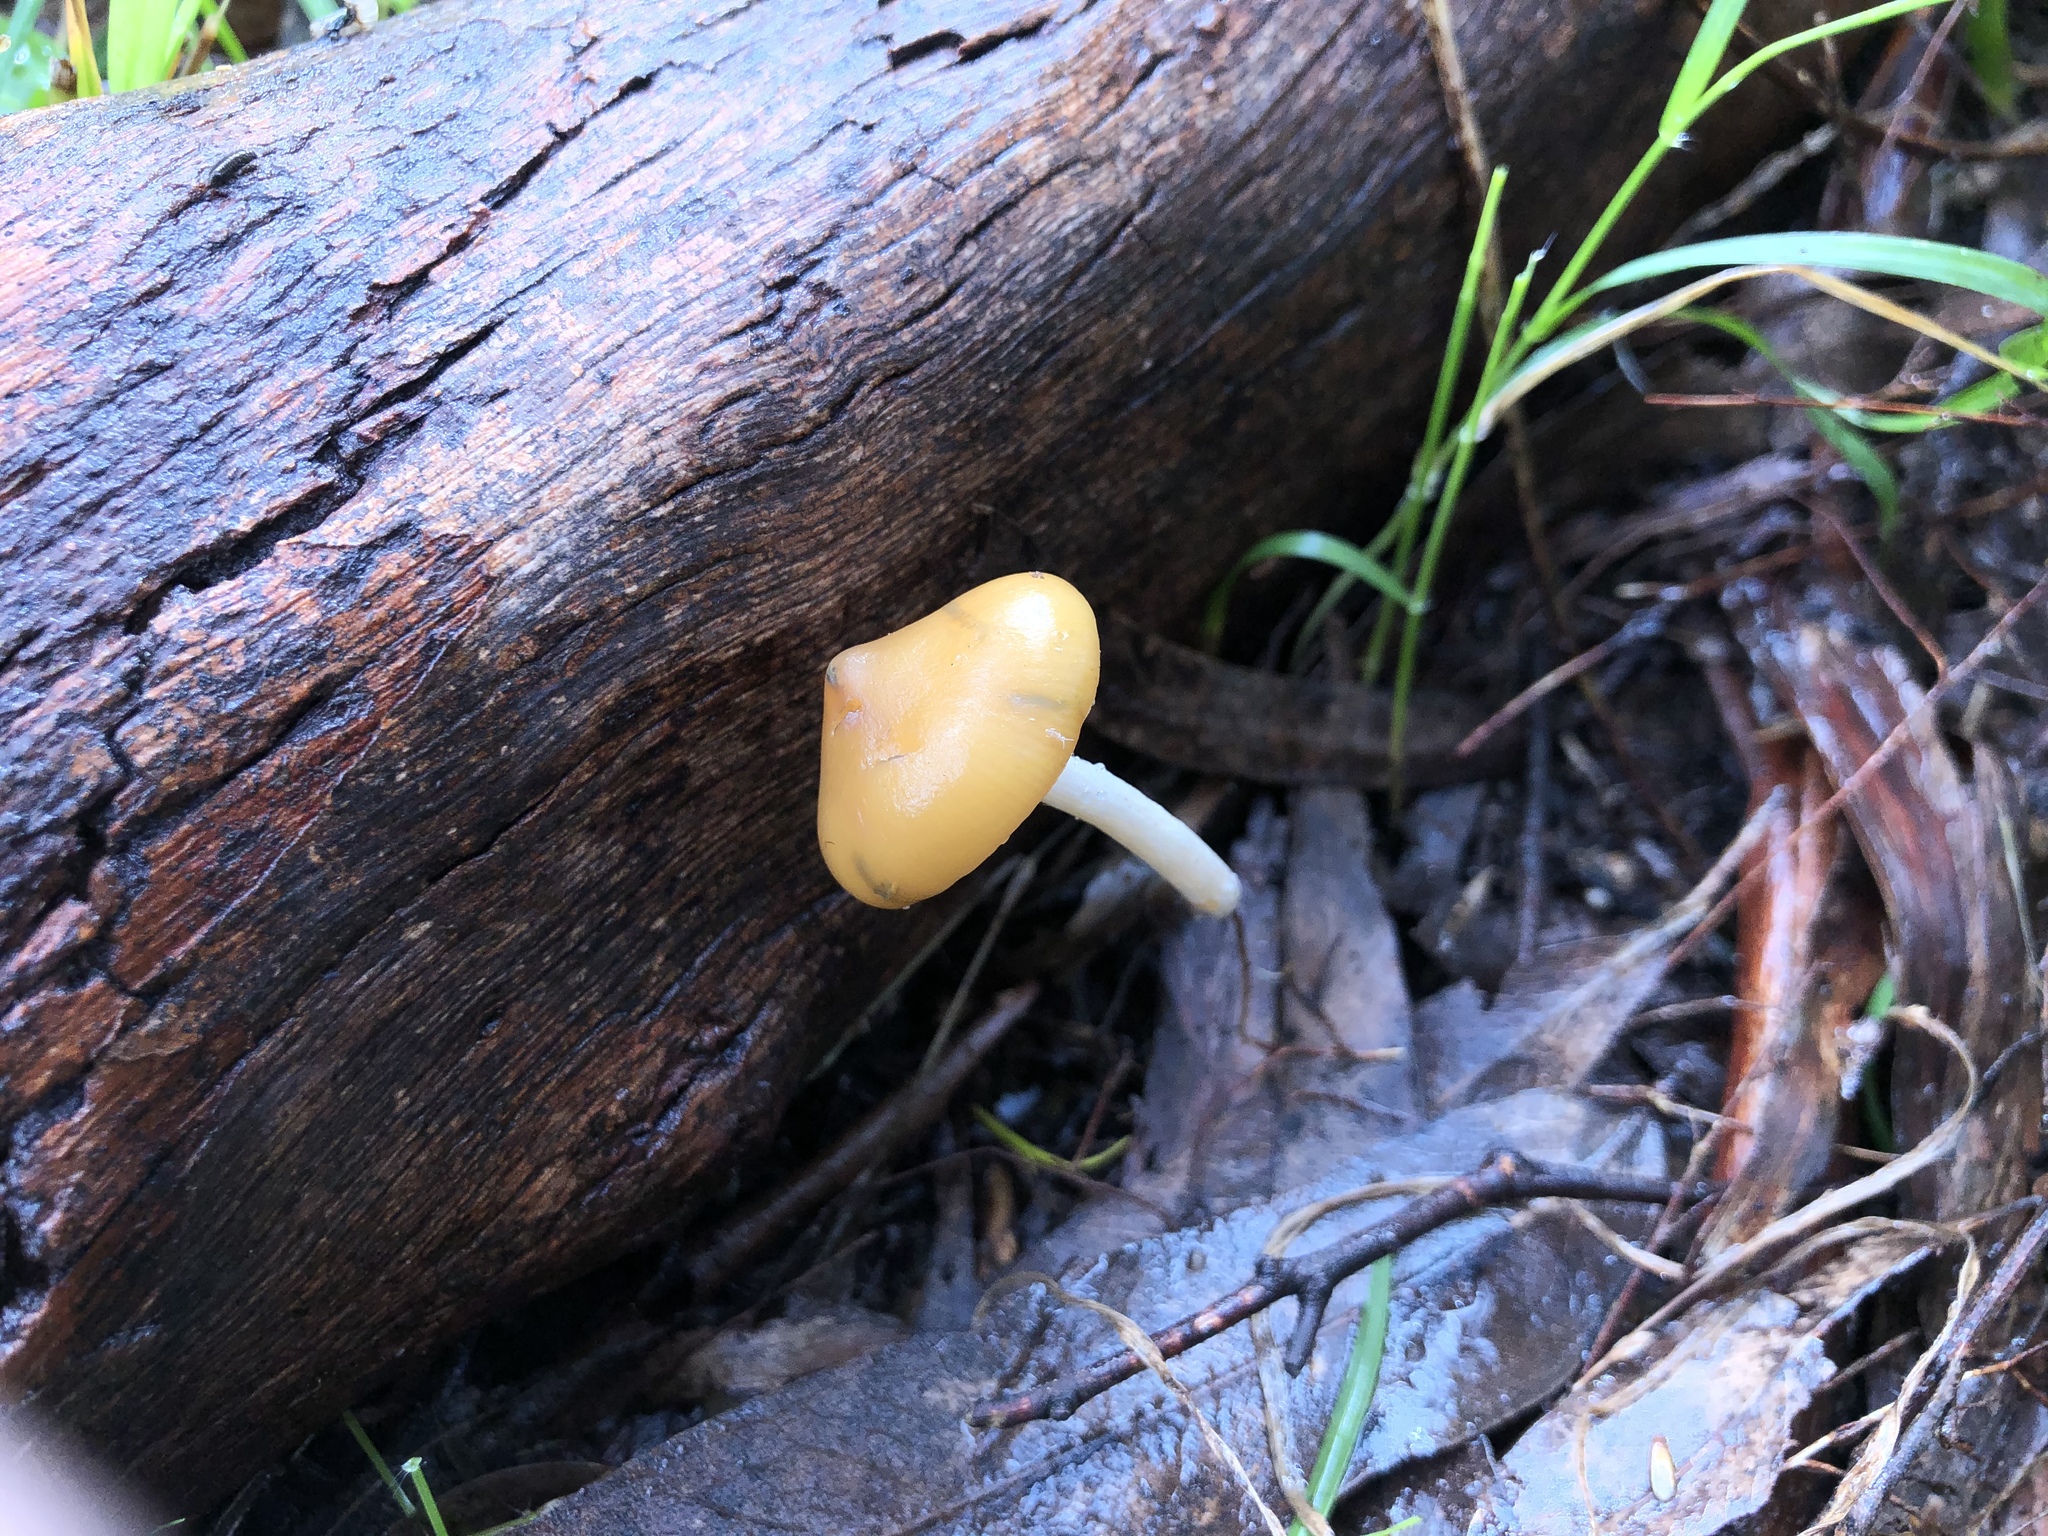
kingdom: Fungi
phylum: Basidiomycota
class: Agaricomycetes
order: Agaricales
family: Hymenogastraceae
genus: Psilocybe
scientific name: Psilocybe subaeruginosa
